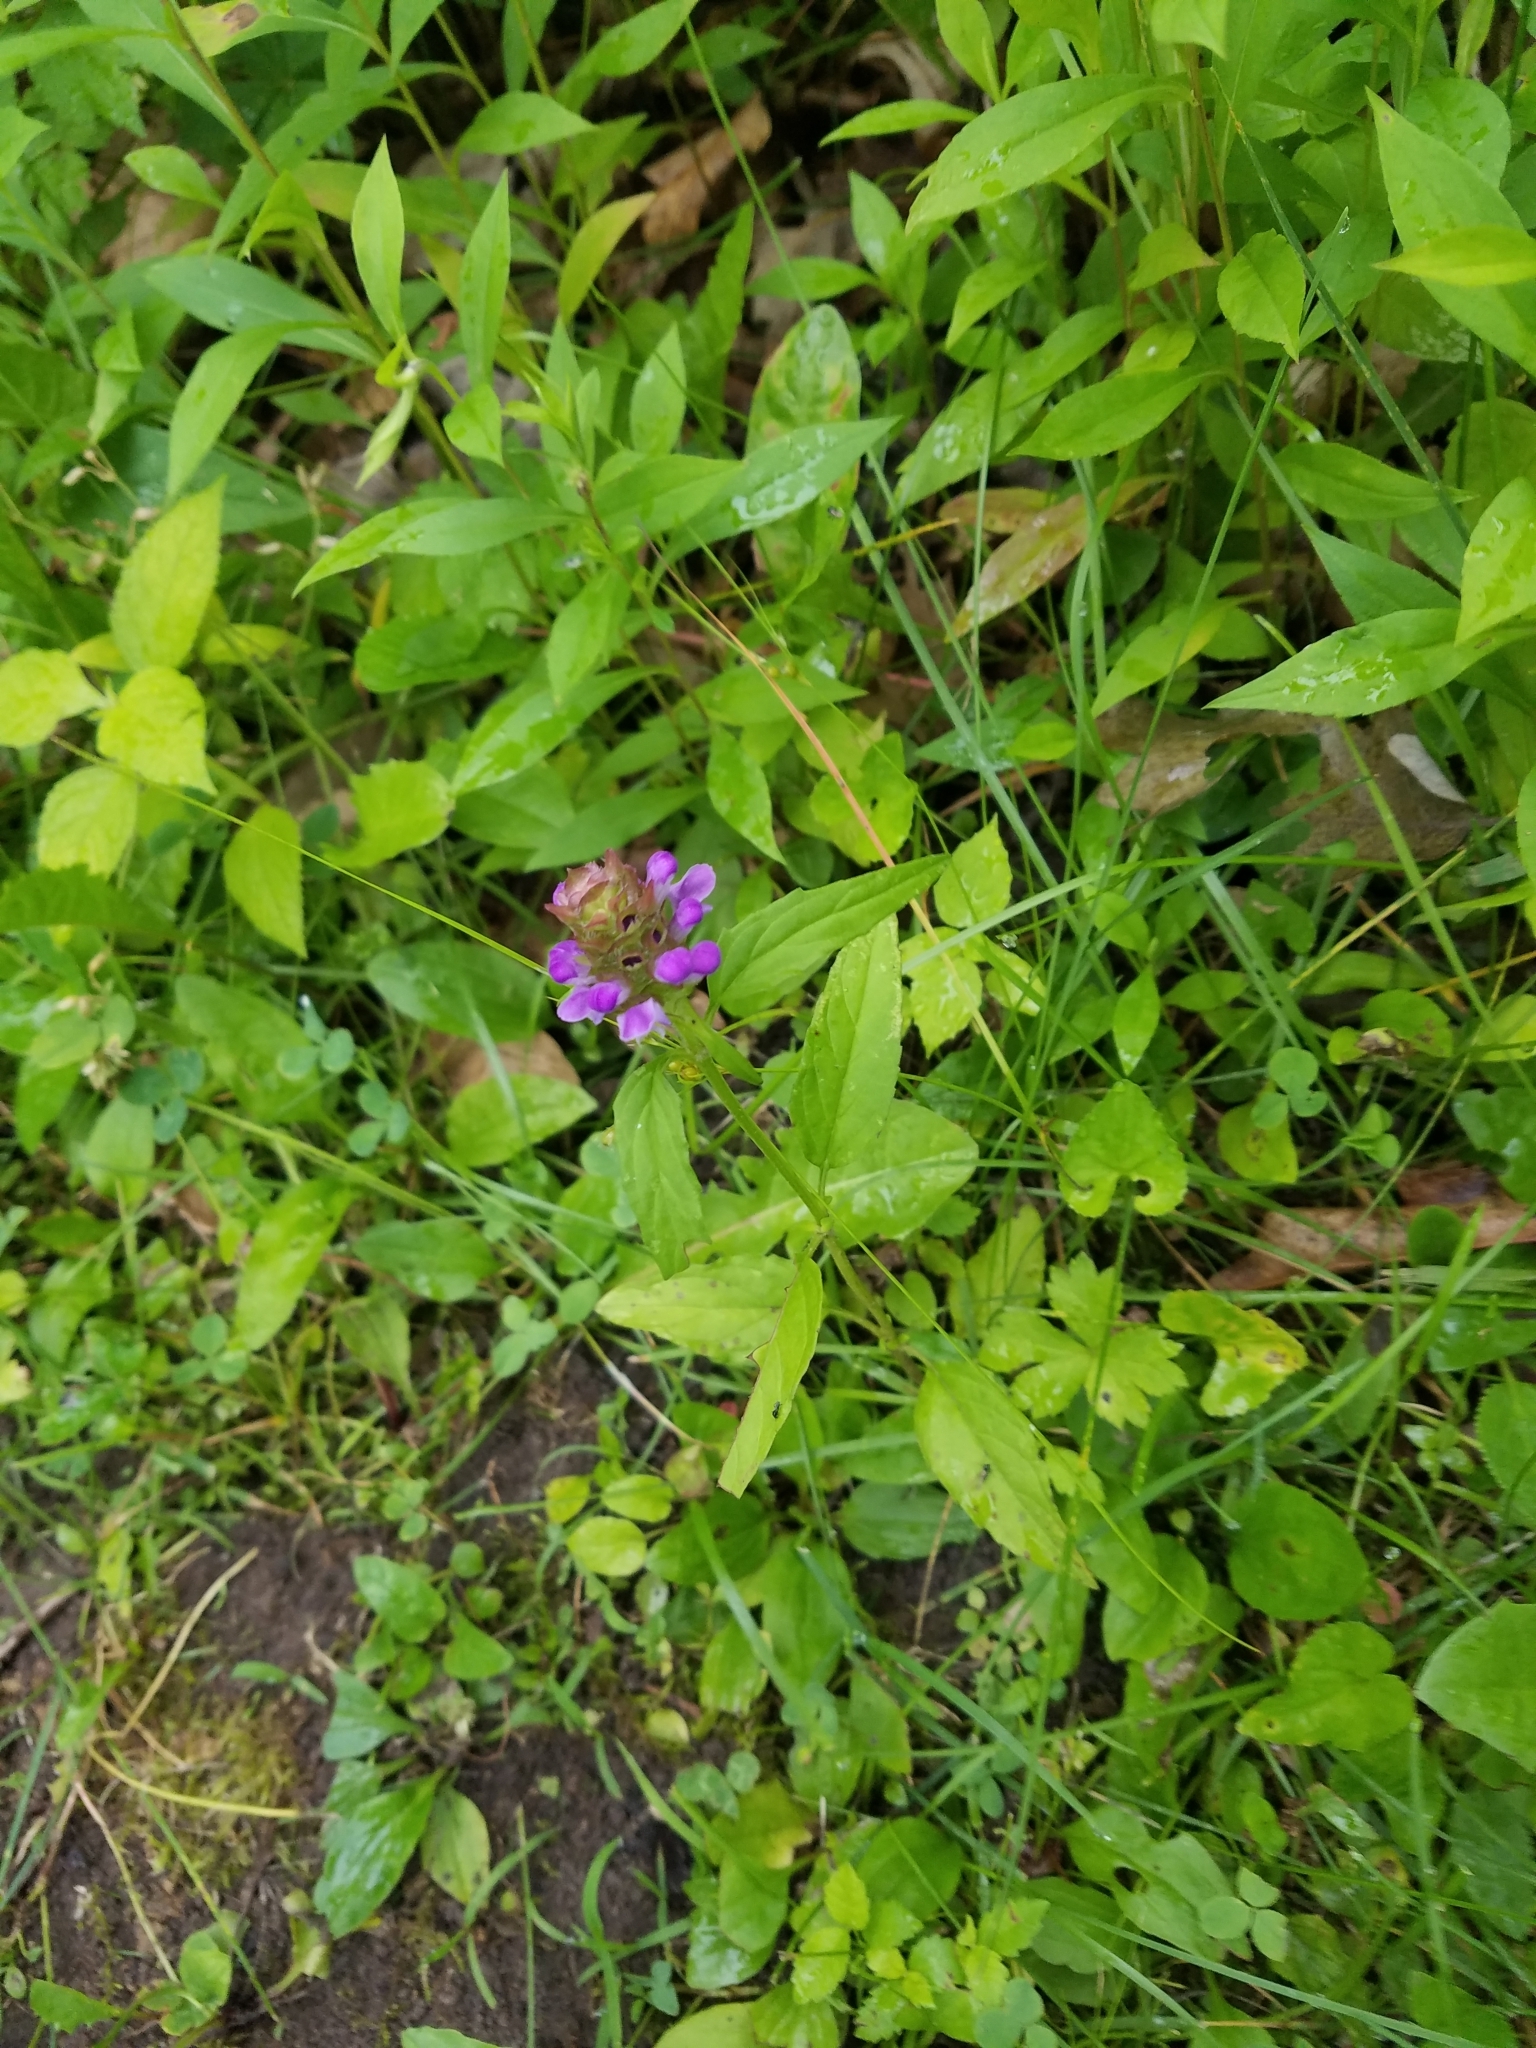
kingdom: Plantae
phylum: Tracheophyta
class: Magnoliopsida
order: Lamiales
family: Lamiaceae
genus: Prunella
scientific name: Prunella vulgaris
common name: Heal-all
